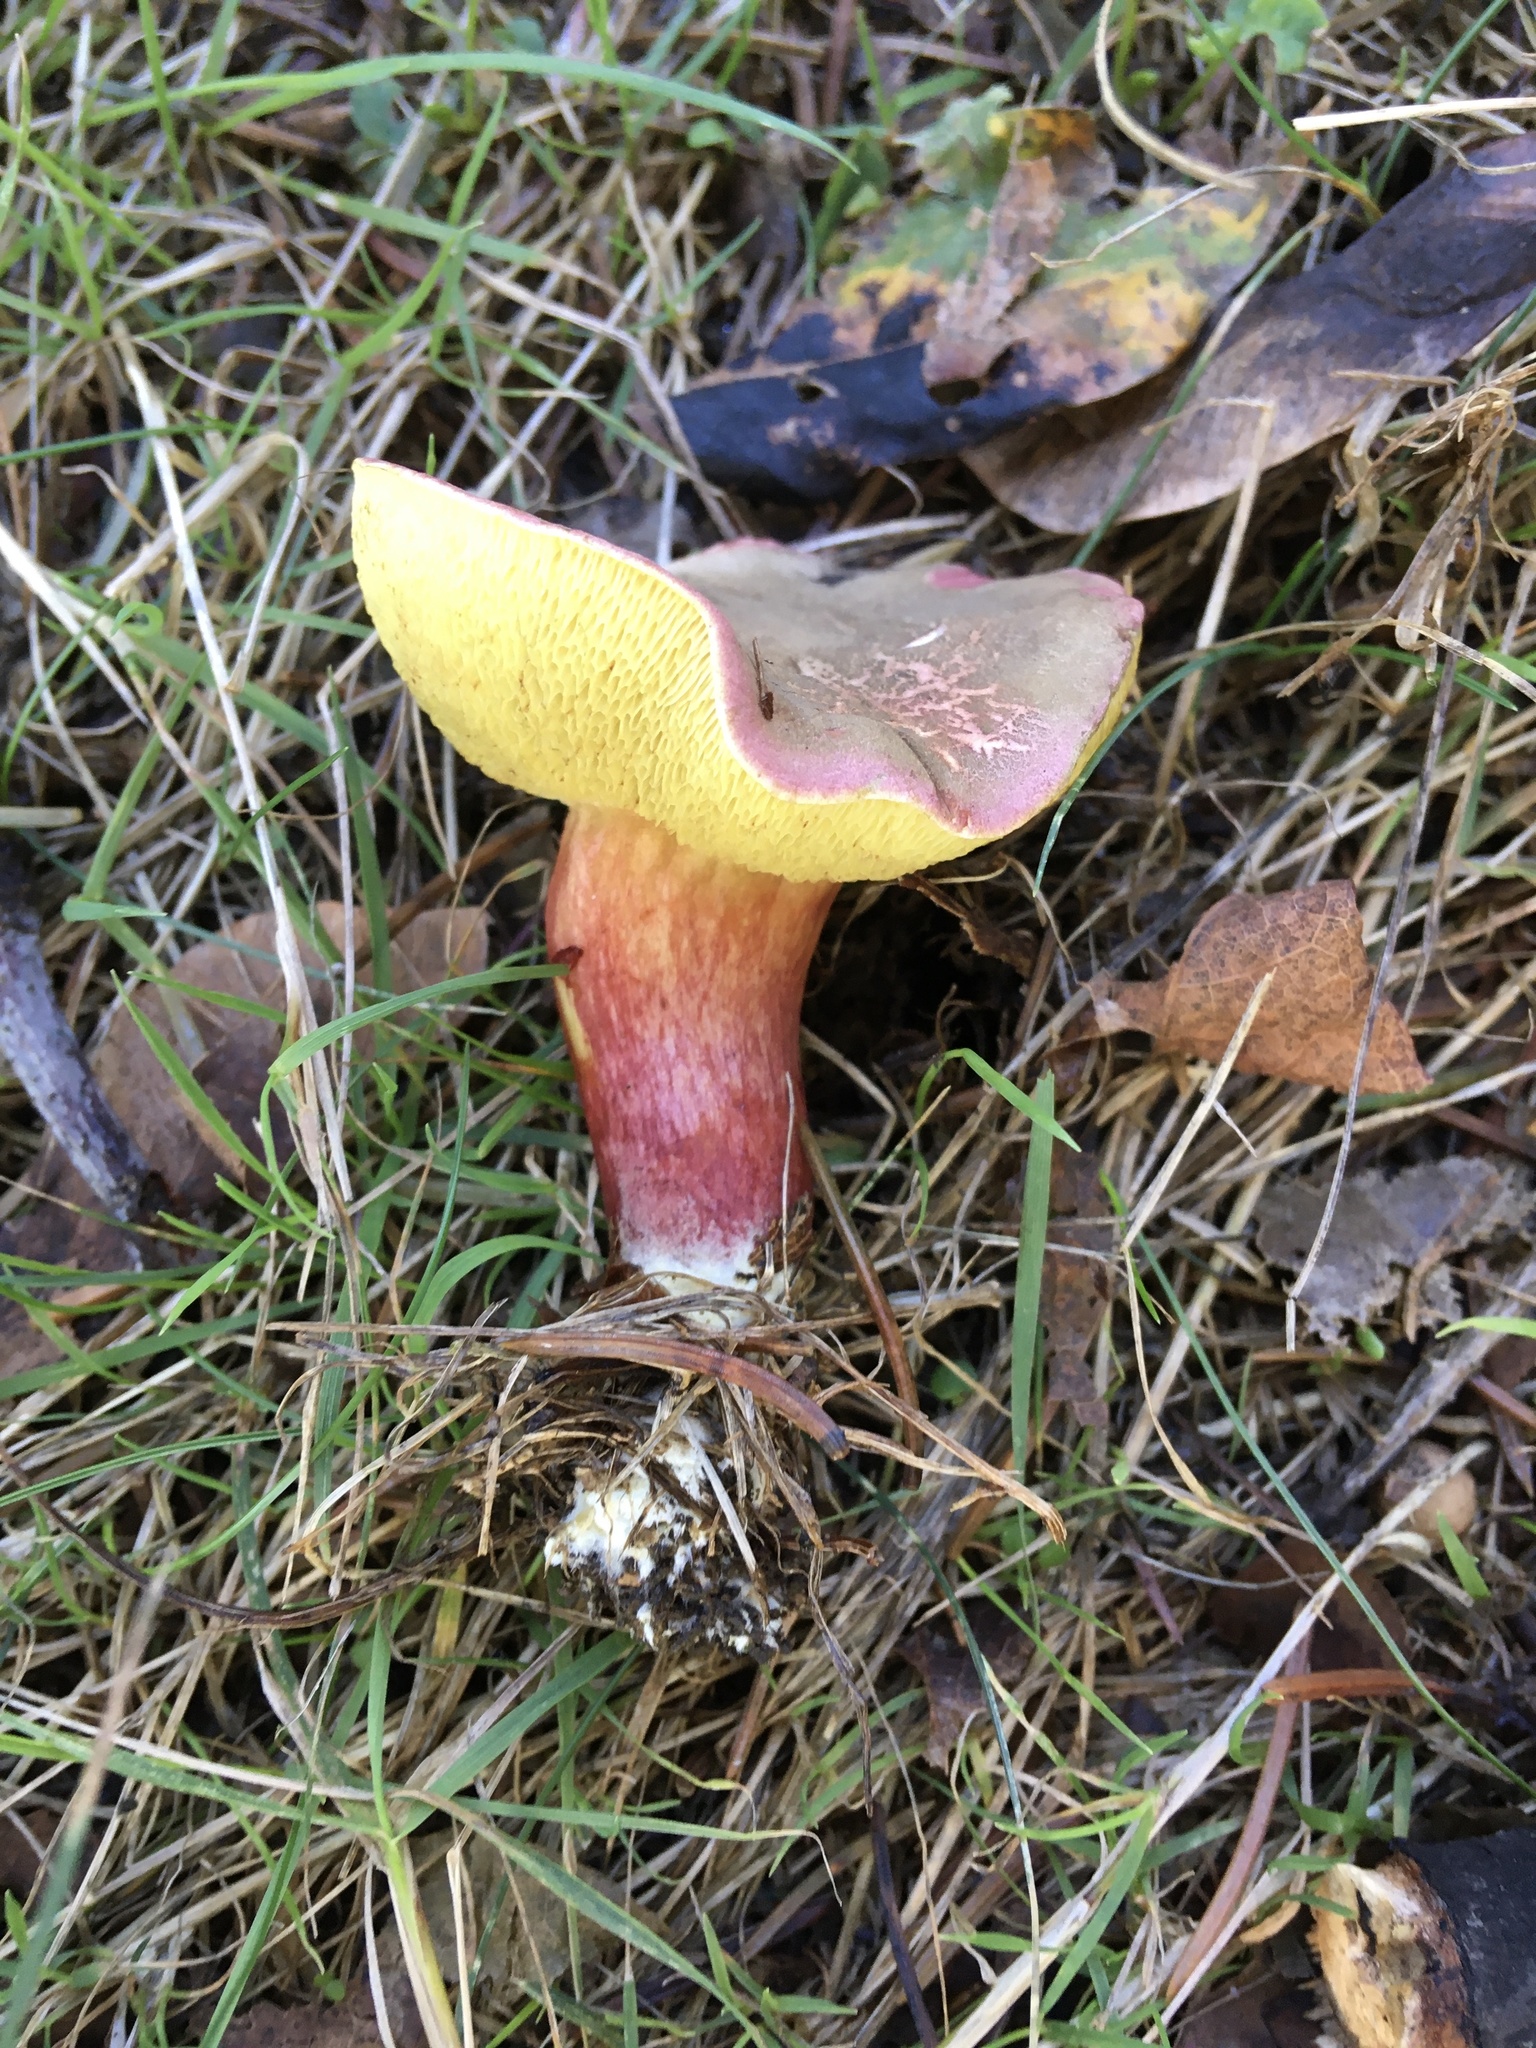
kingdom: Fungi
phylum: Basidiomycota
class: Agaricomycetes
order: Boletales
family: Boletaceae
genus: Xerocomellus
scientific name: Xerocomellus chrysenteron
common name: Red-cracking bolete
